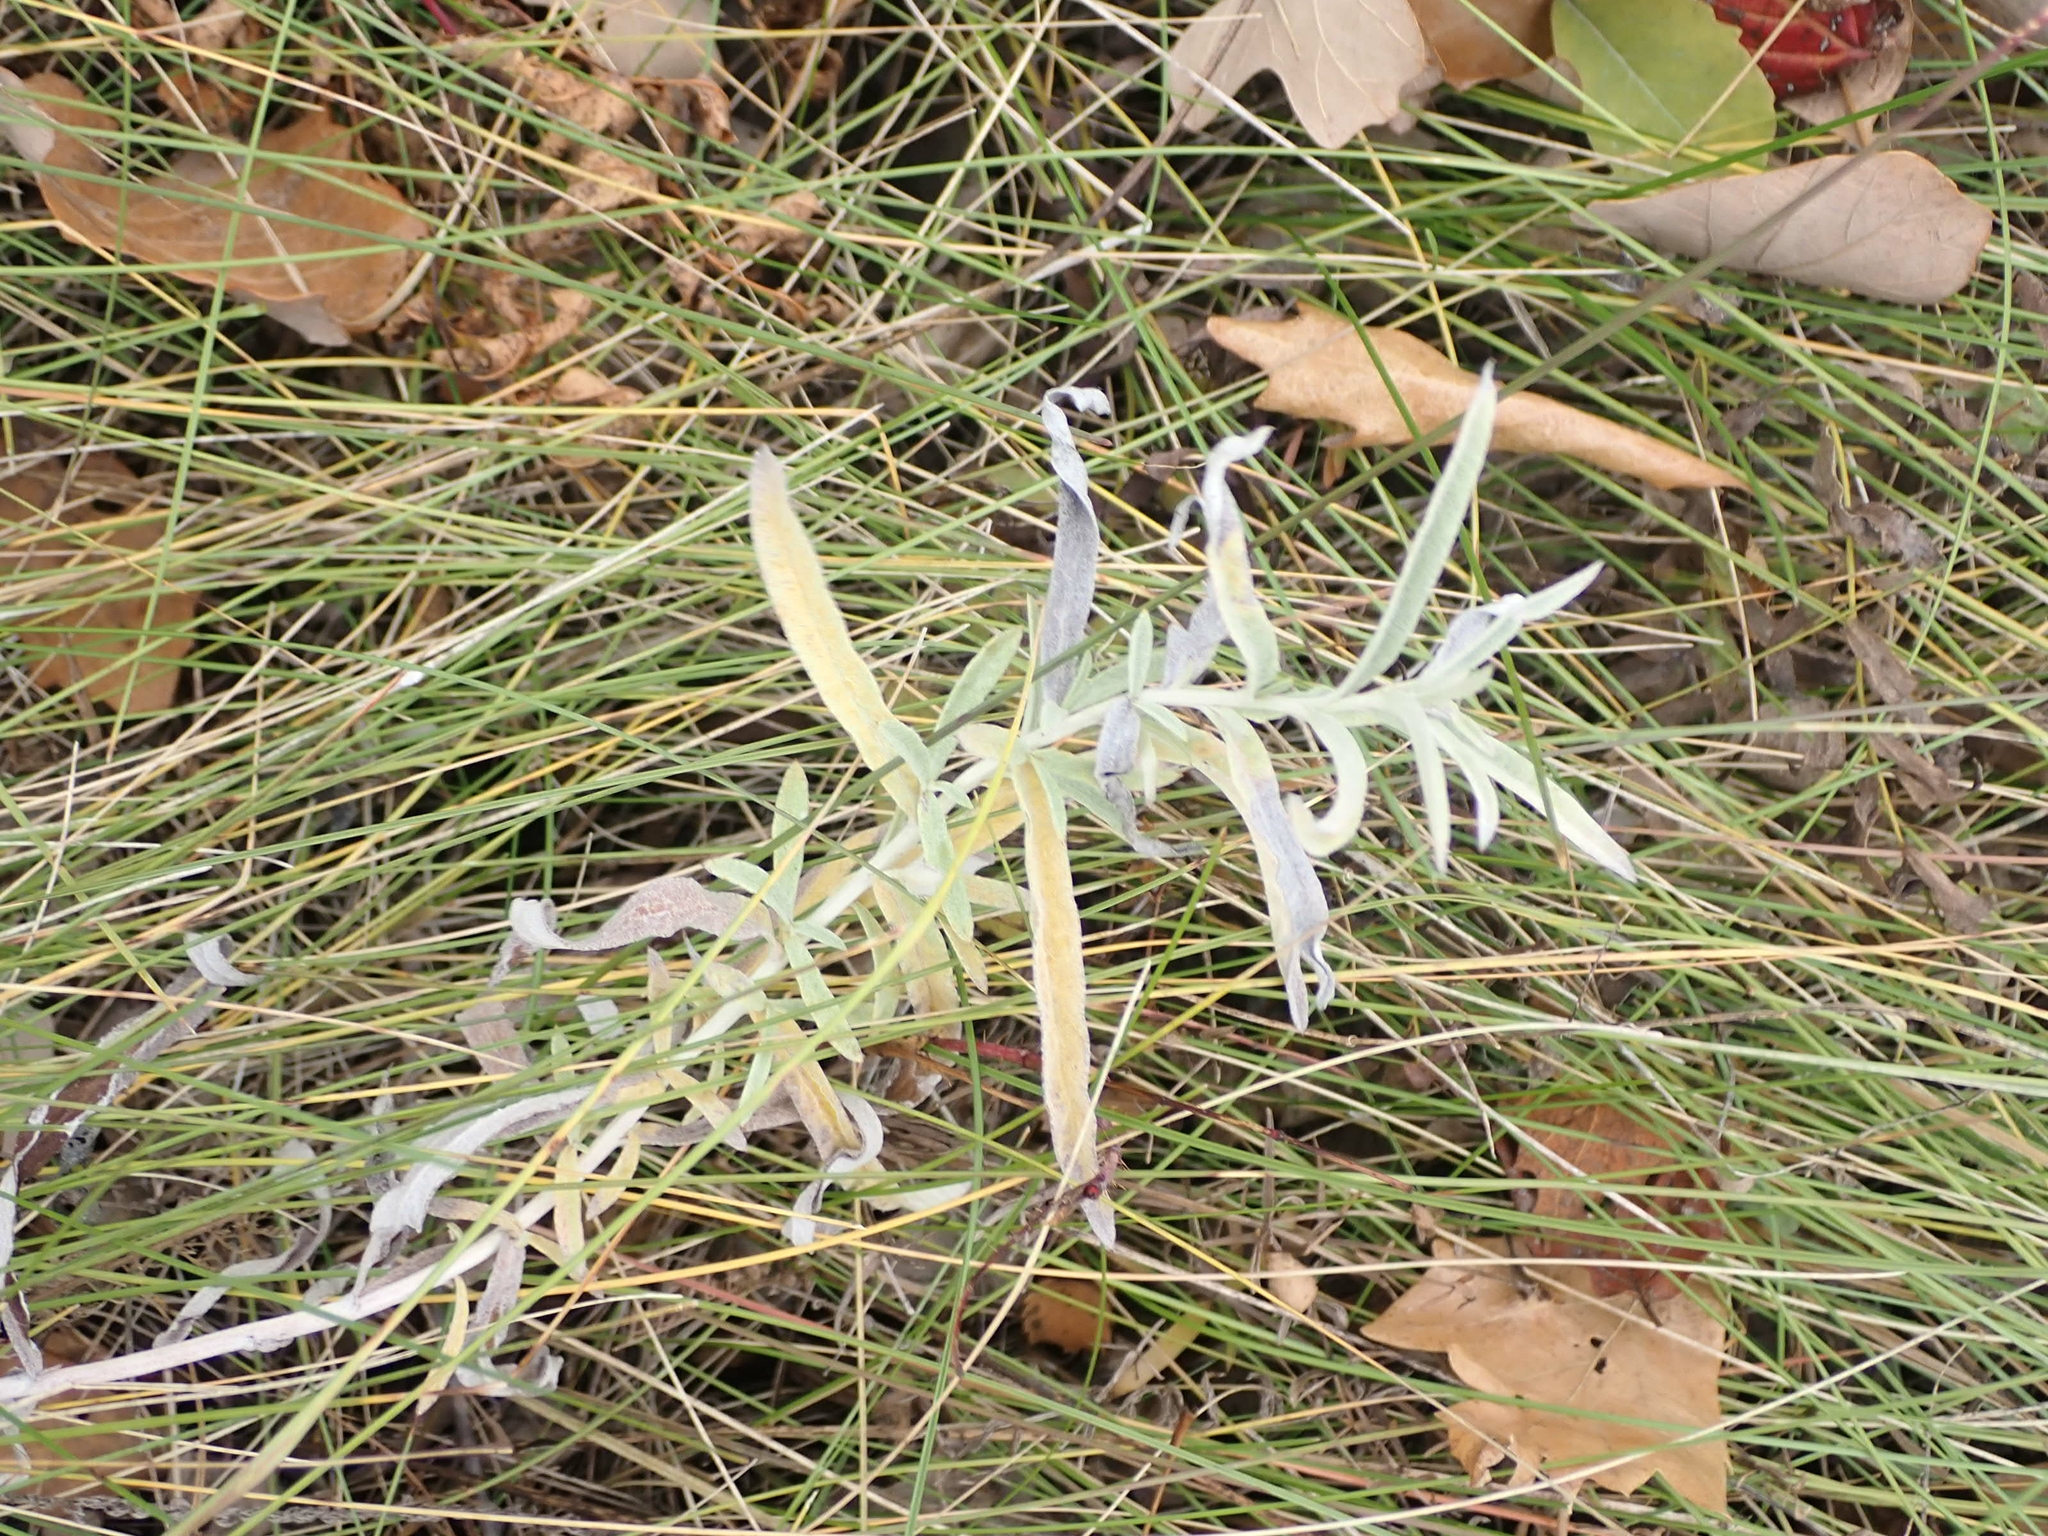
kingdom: Plantae
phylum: Tracheophyta
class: Magnoliopsida
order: Asterales
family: Asteraceae
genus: Artemisia
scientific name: Artemisia ludoviciana
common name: Western mugwort
